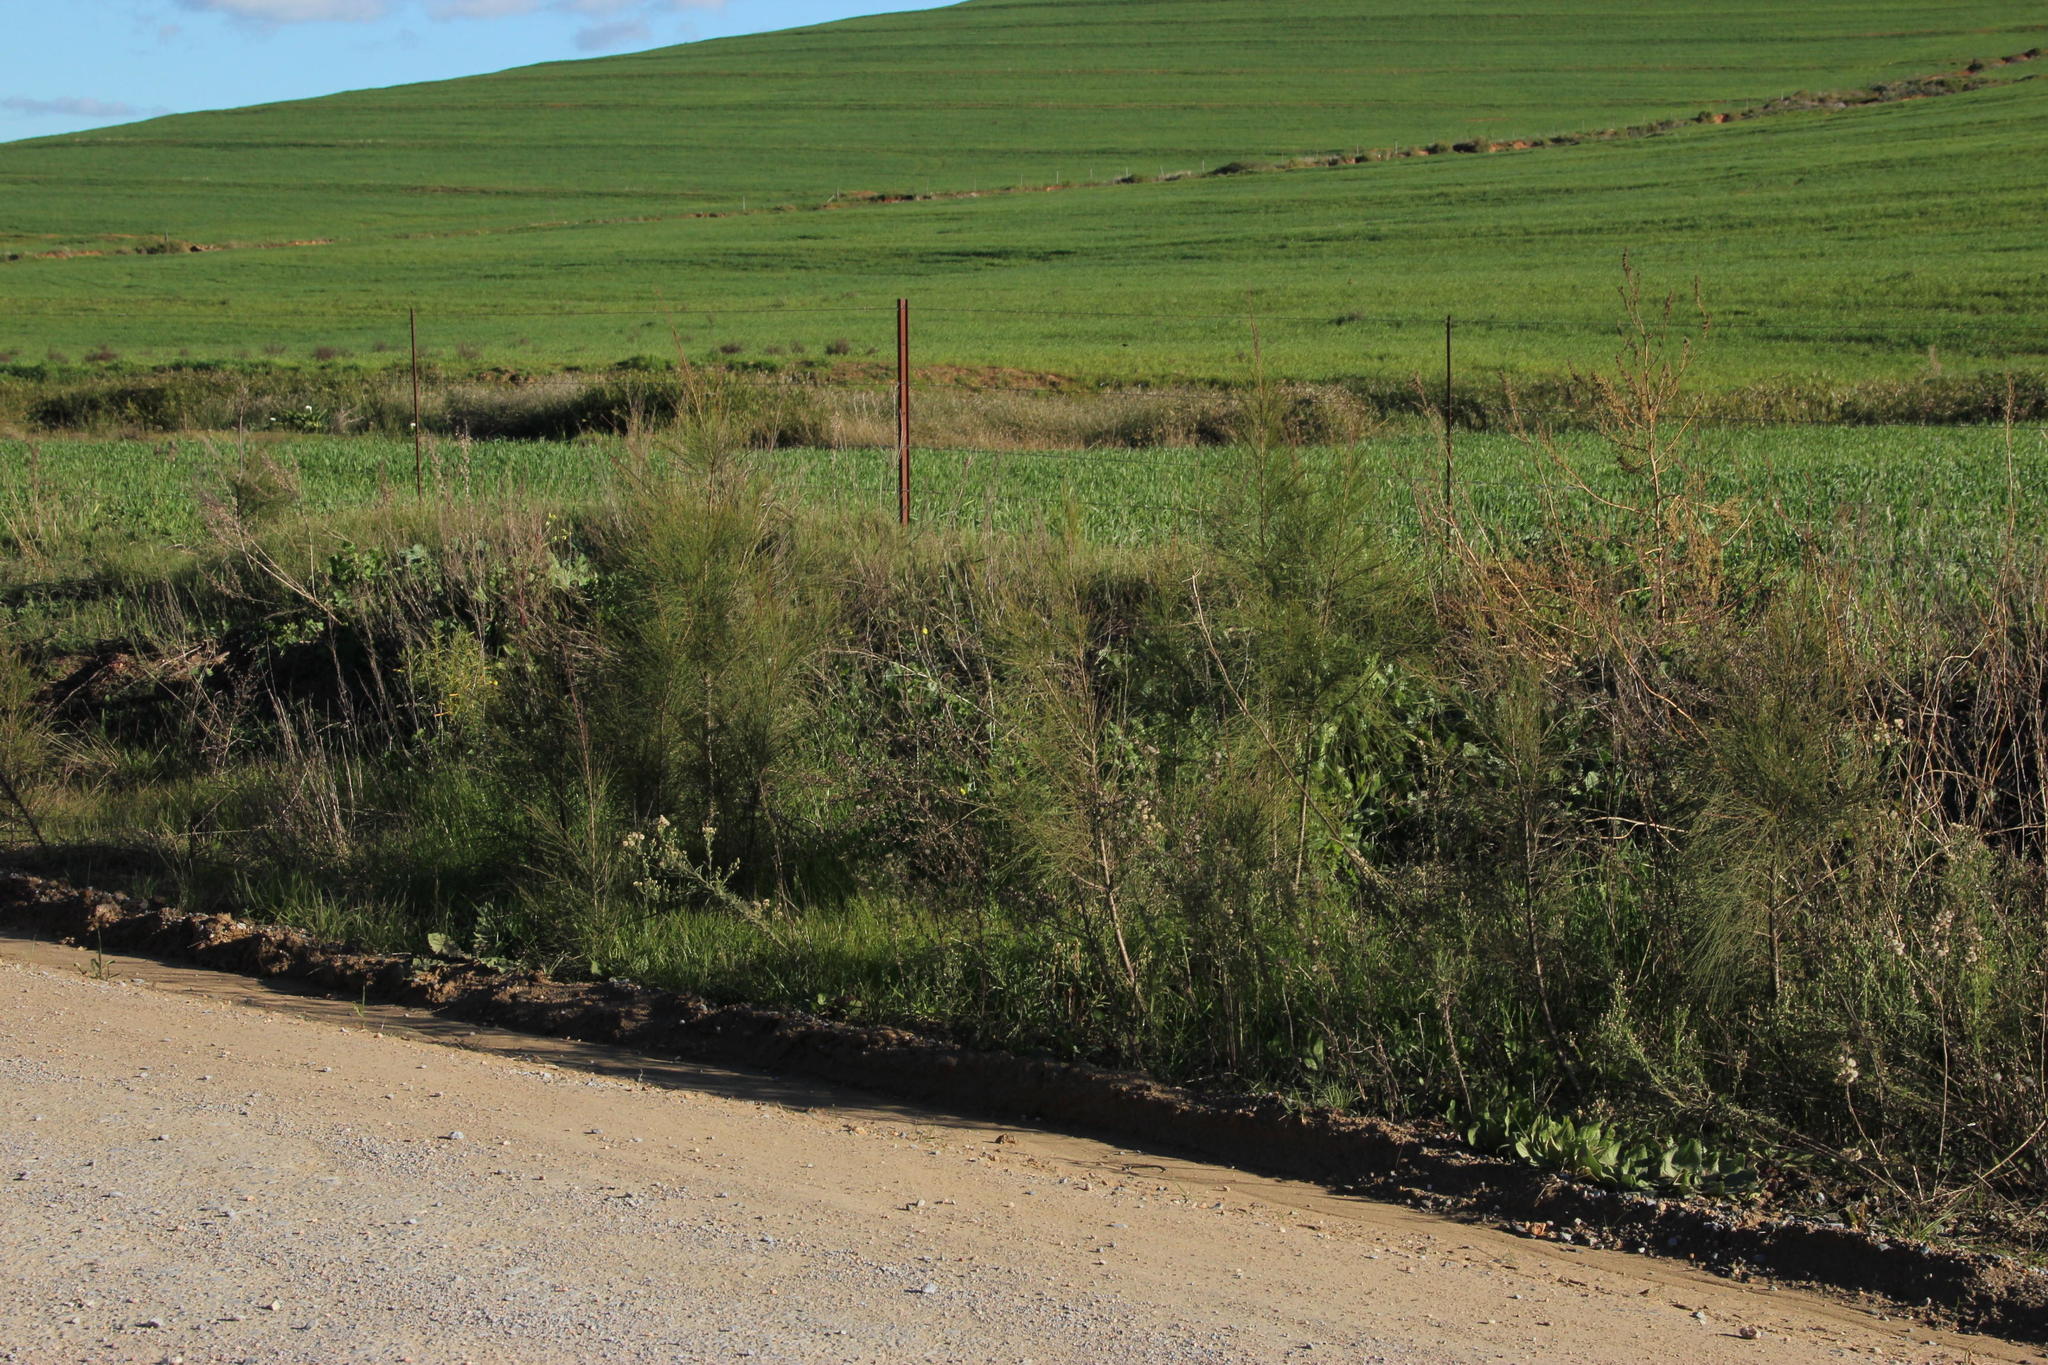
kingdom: Plantae
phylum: Tracheophyta
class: Magnoliopsida
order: Fagales
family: Casuarinaceae
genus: Casuarina
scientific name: Casuarina cunninghamiana
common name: River sheoak
